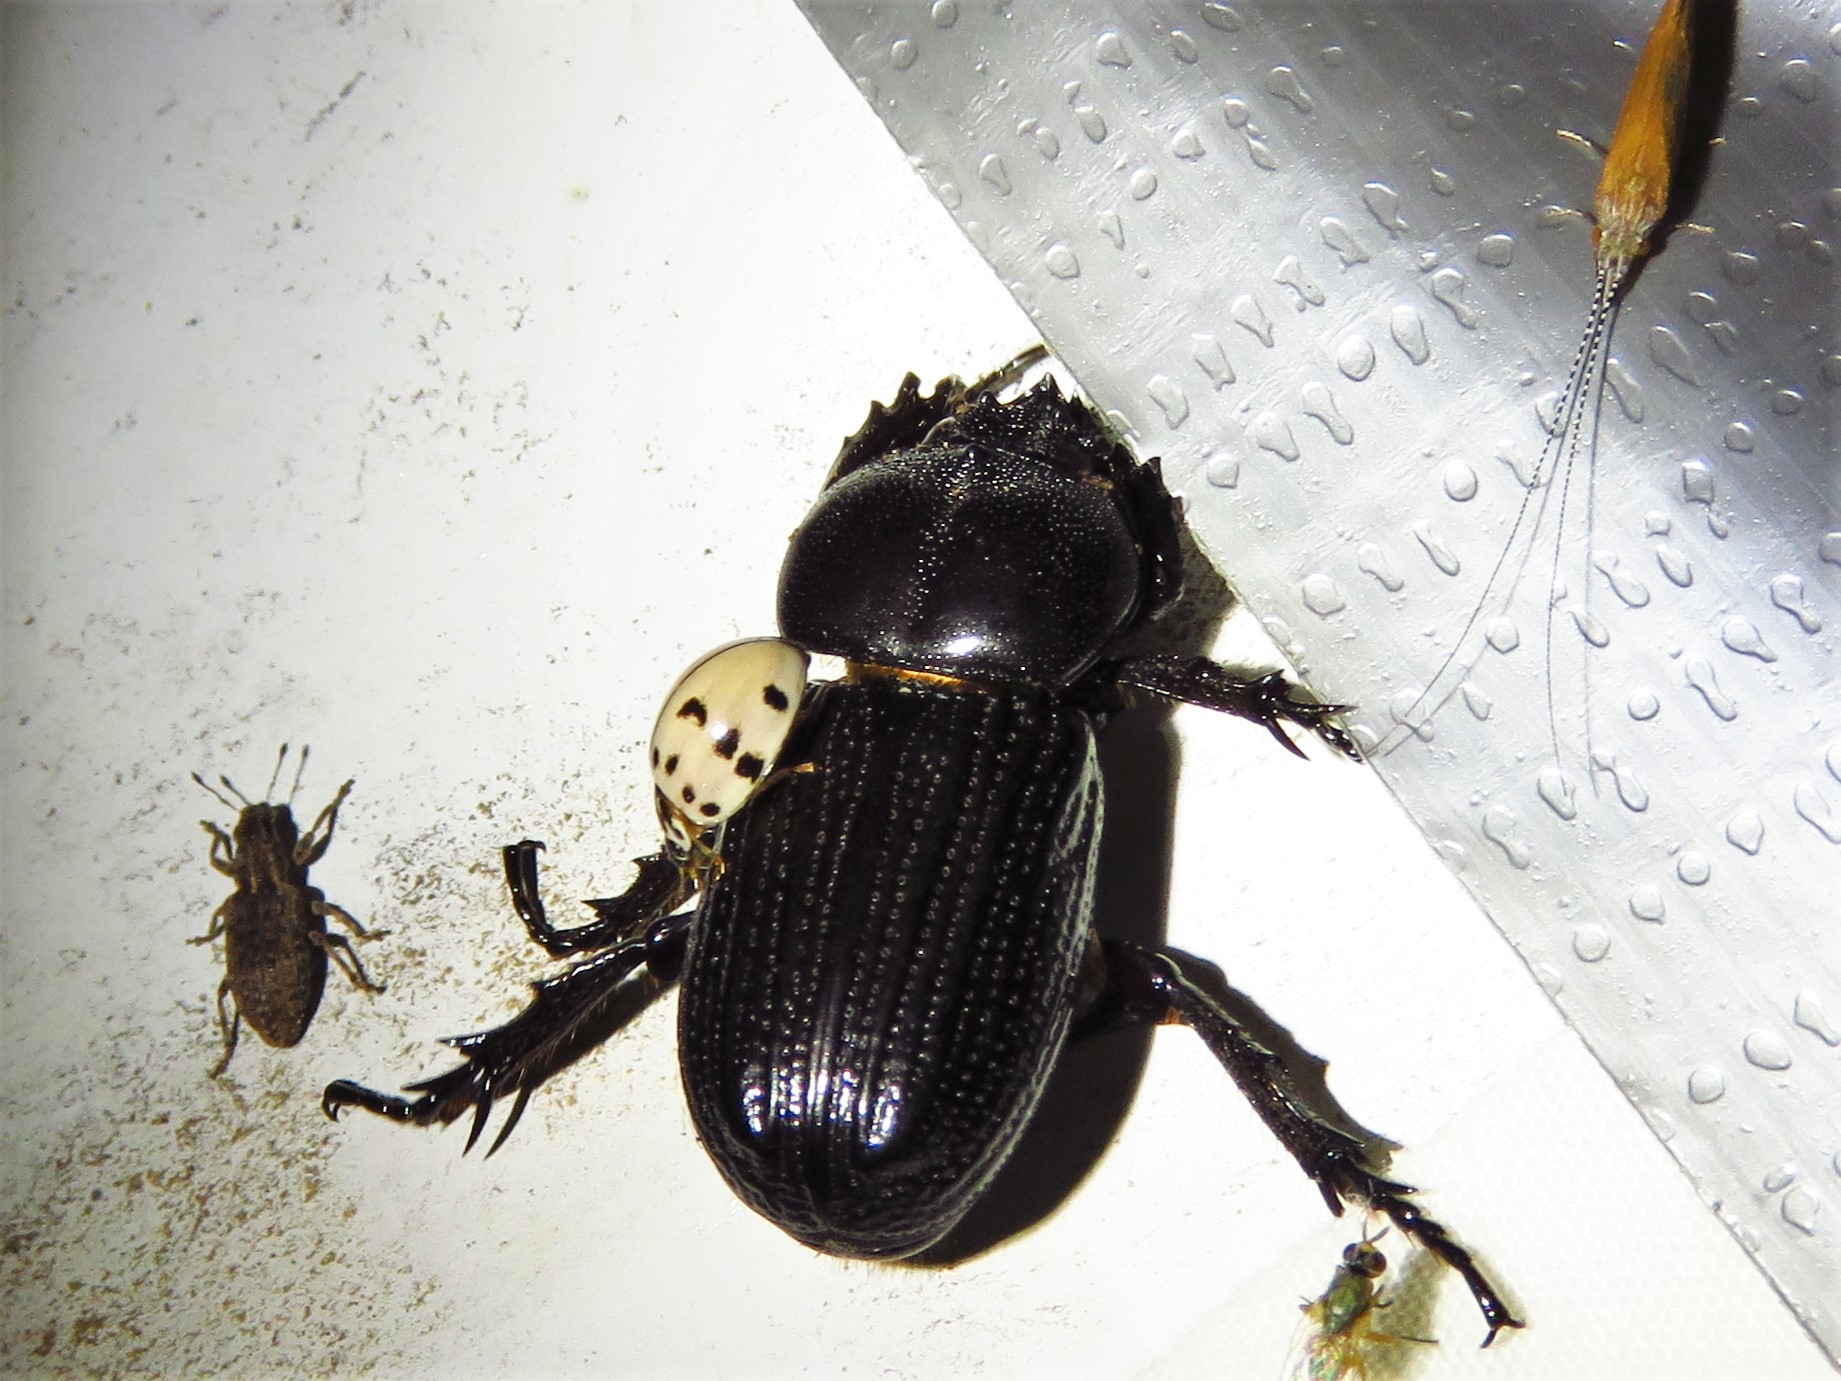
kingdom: Animalia
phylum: Arthropoda
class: Insecta
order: Coleoptera
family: Scarabaeidae
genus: Phileurus
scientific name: Phileurus valgus
